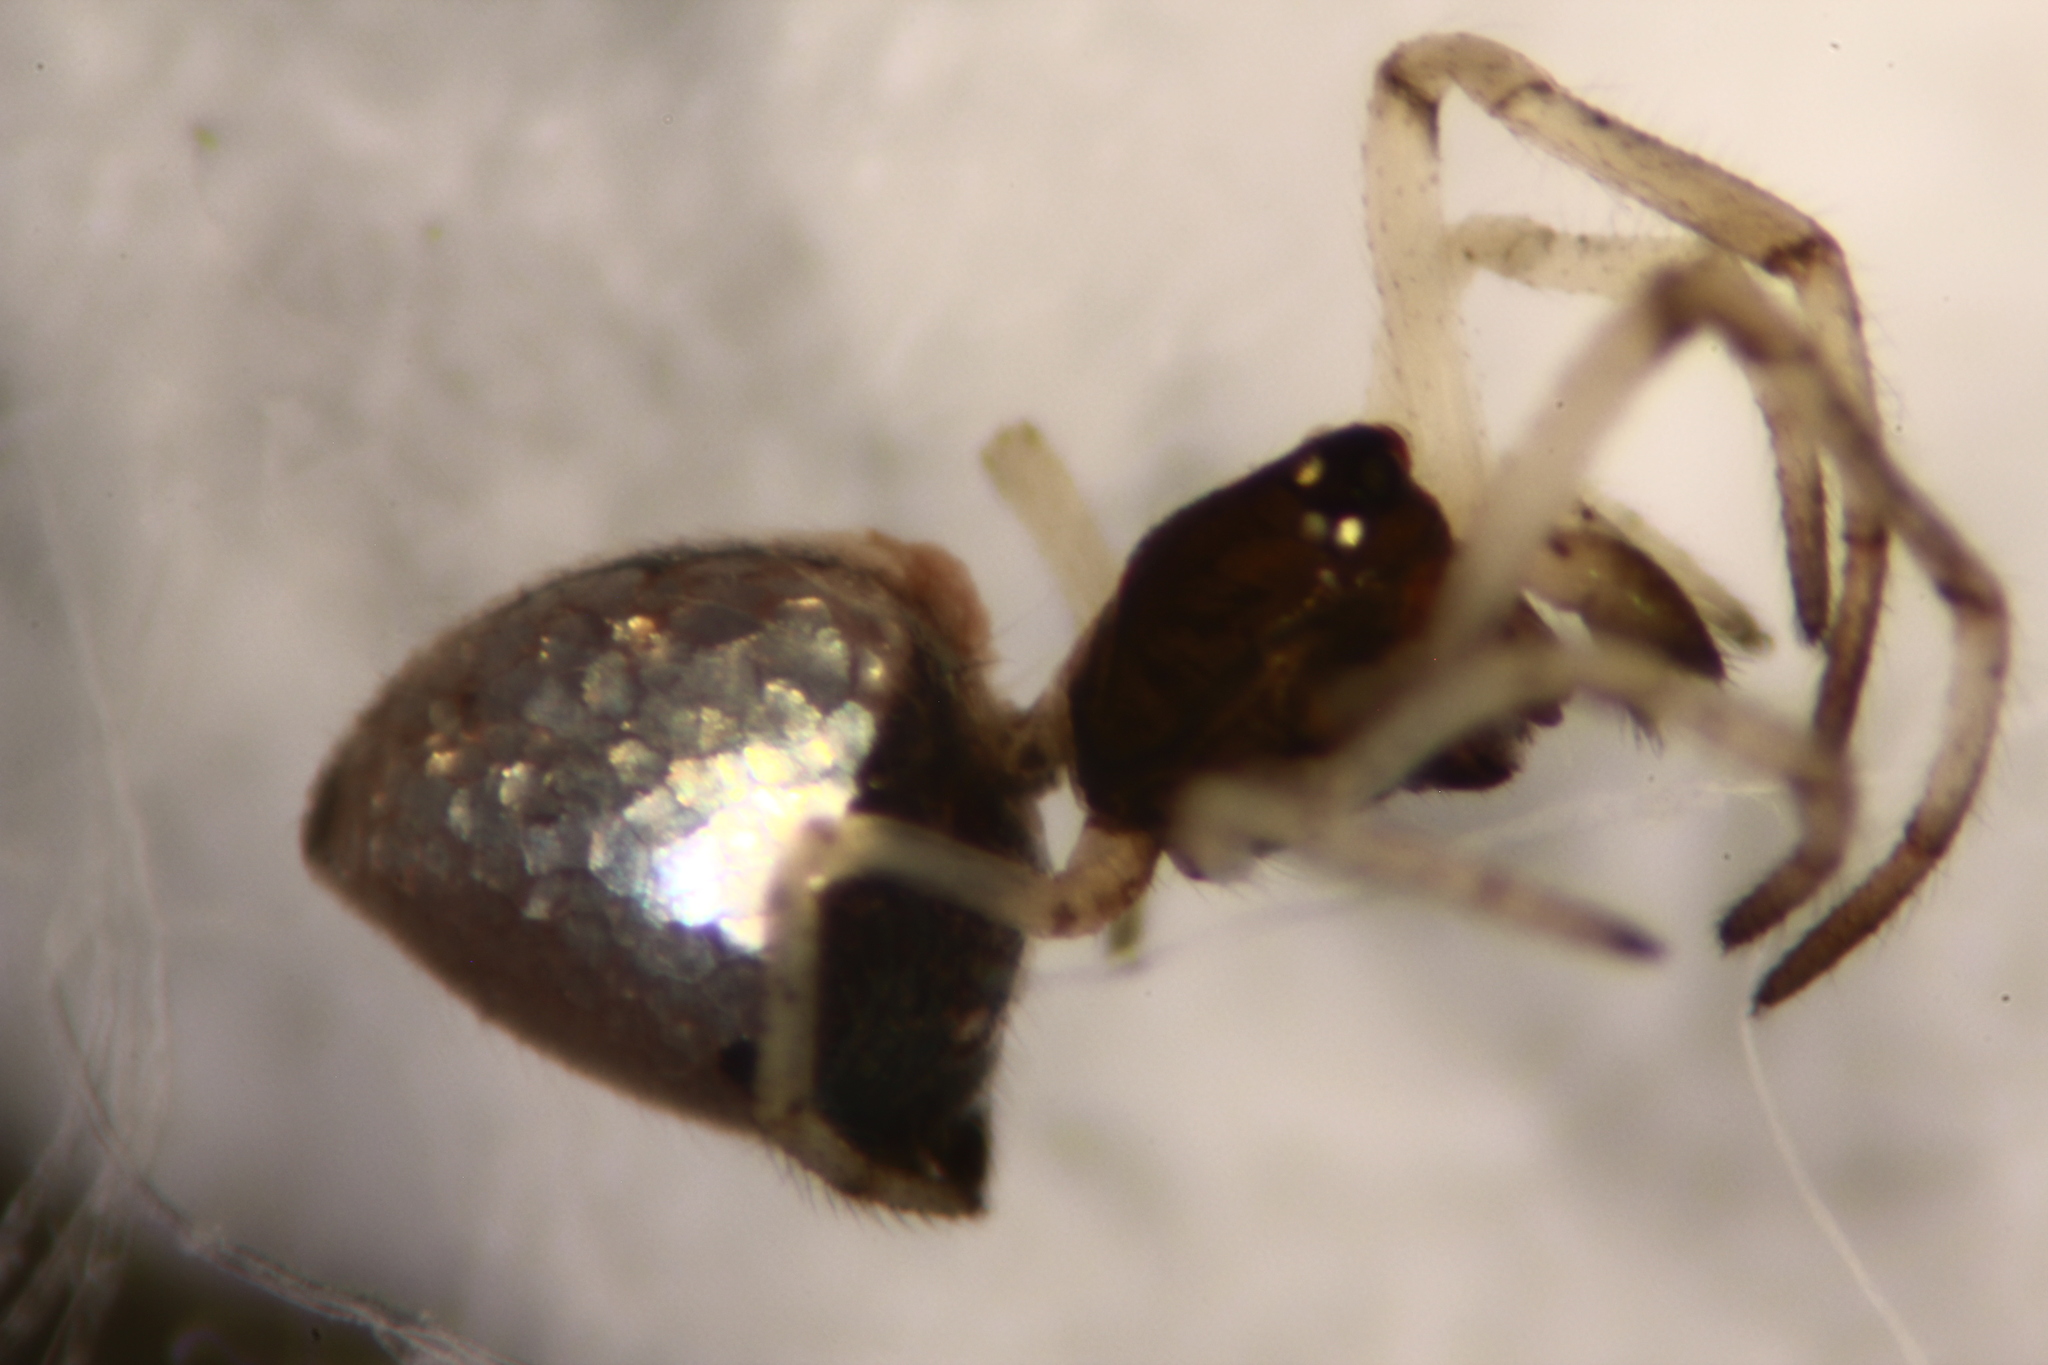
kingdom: Animalia
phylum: Arthropoda
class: Arachnida
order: Araneae
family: Theridiidae
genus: Argyrodes
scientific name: Argyrodes bonadea
